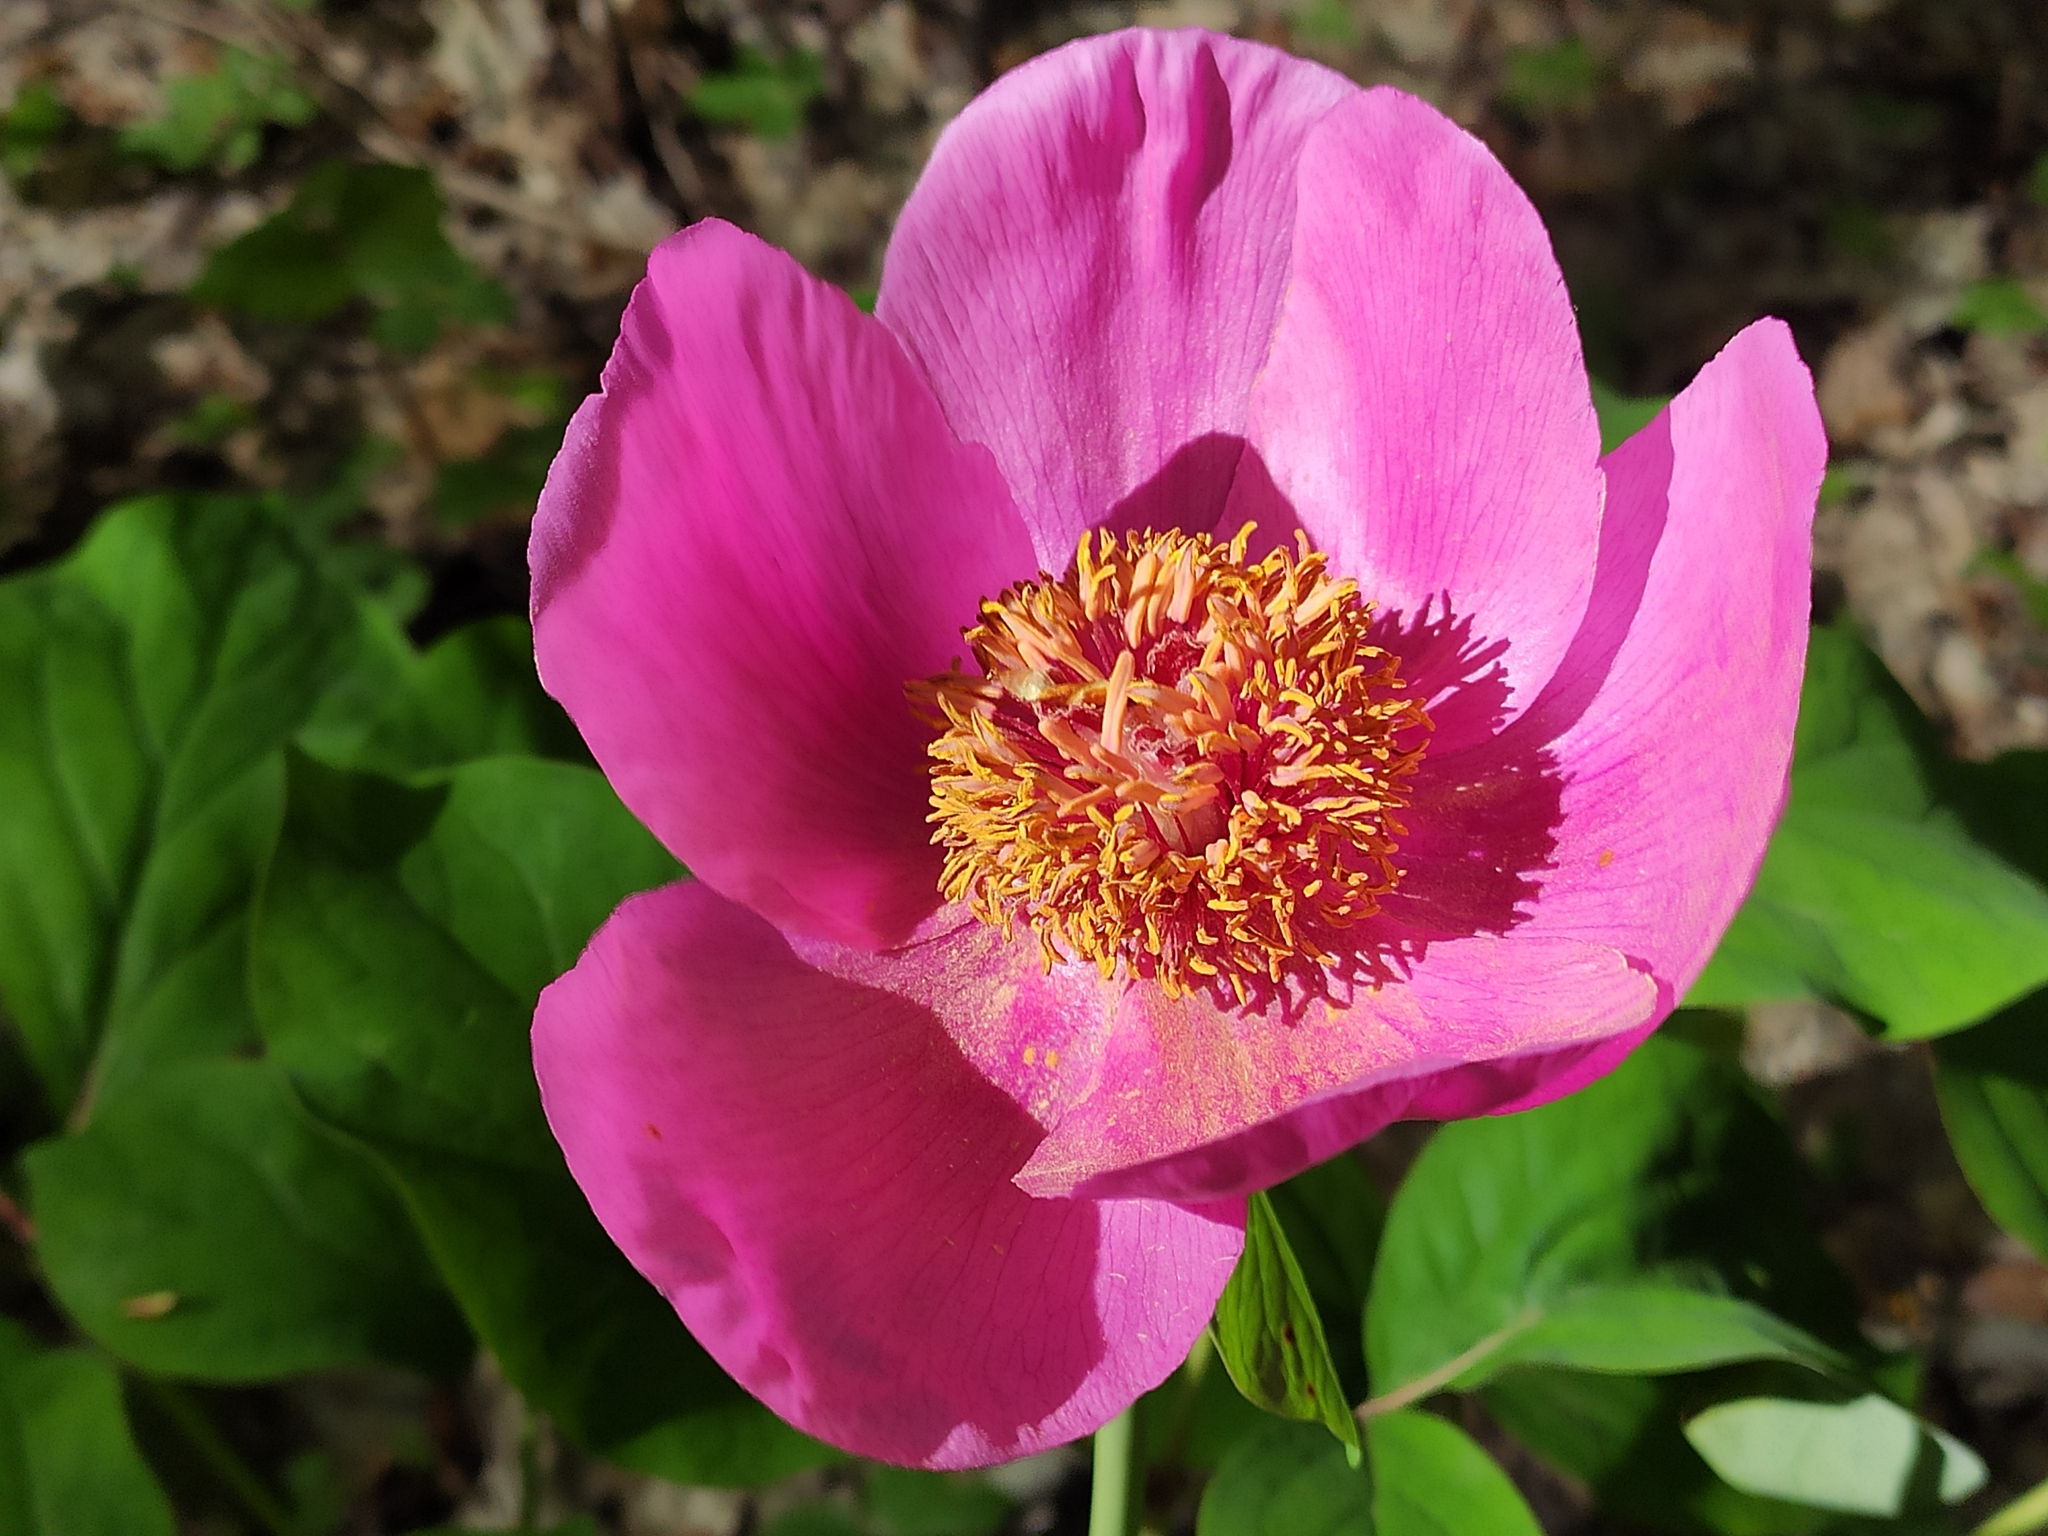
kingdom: Plantae
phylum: Tracheophyta
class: Magnoliopsida
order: Saxifragales
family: Paeoniaceae
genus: Paeonia
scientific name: Paeonia caucasica
